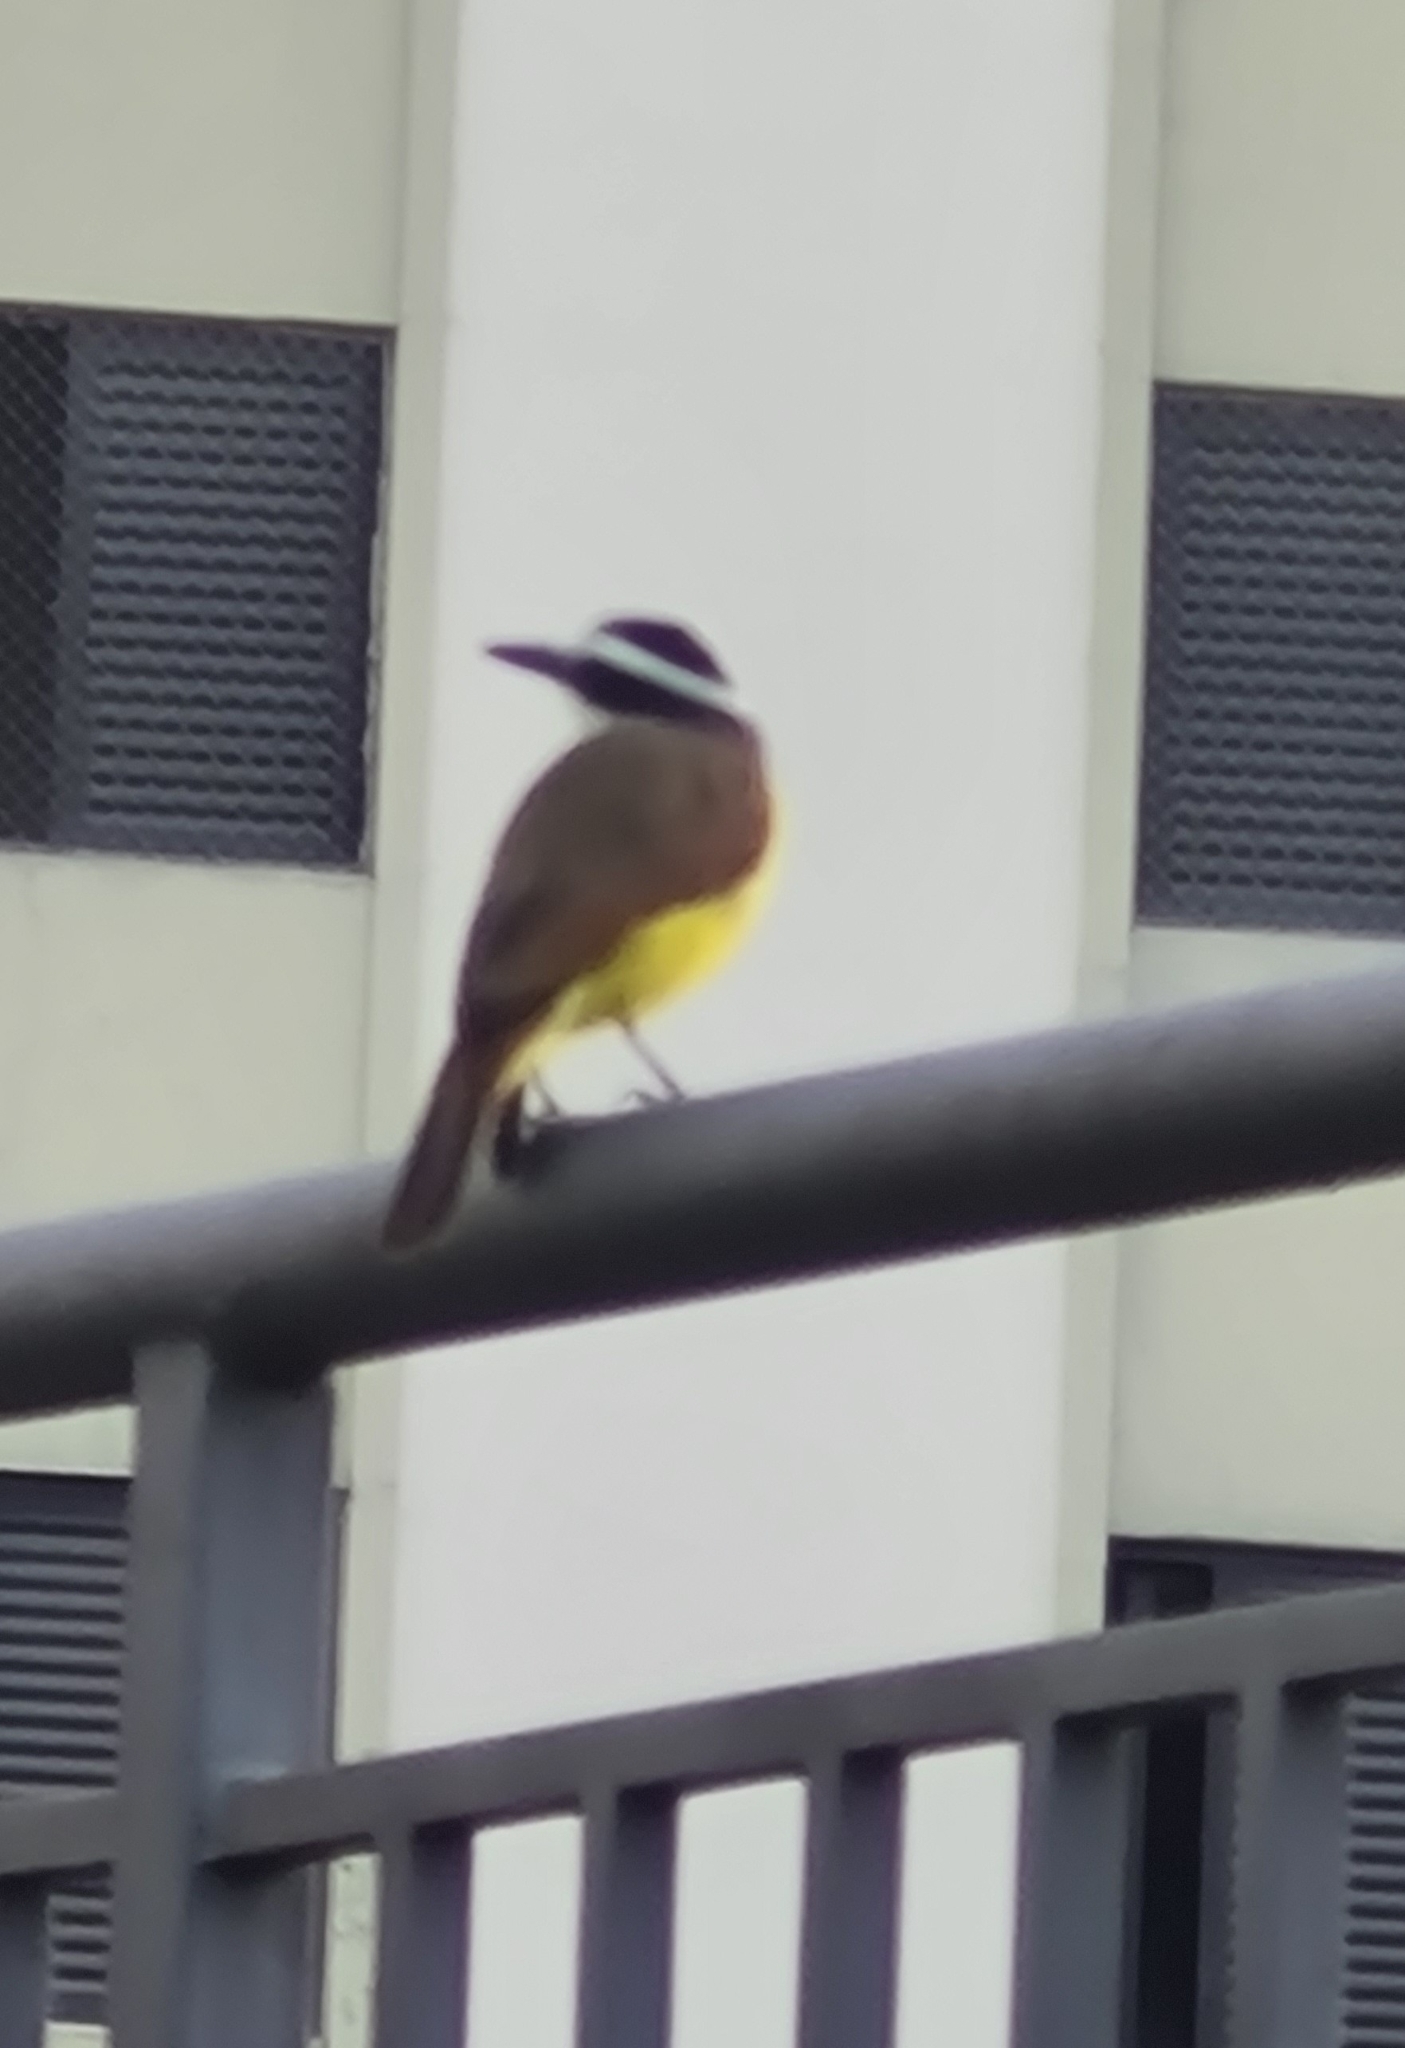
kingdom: Animalia
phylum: Chordata
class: Aves
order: Passeriformes
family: Tyrannidae
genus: Pitangus
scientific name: Pitangus sulphuratus
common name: Great kiskadee
